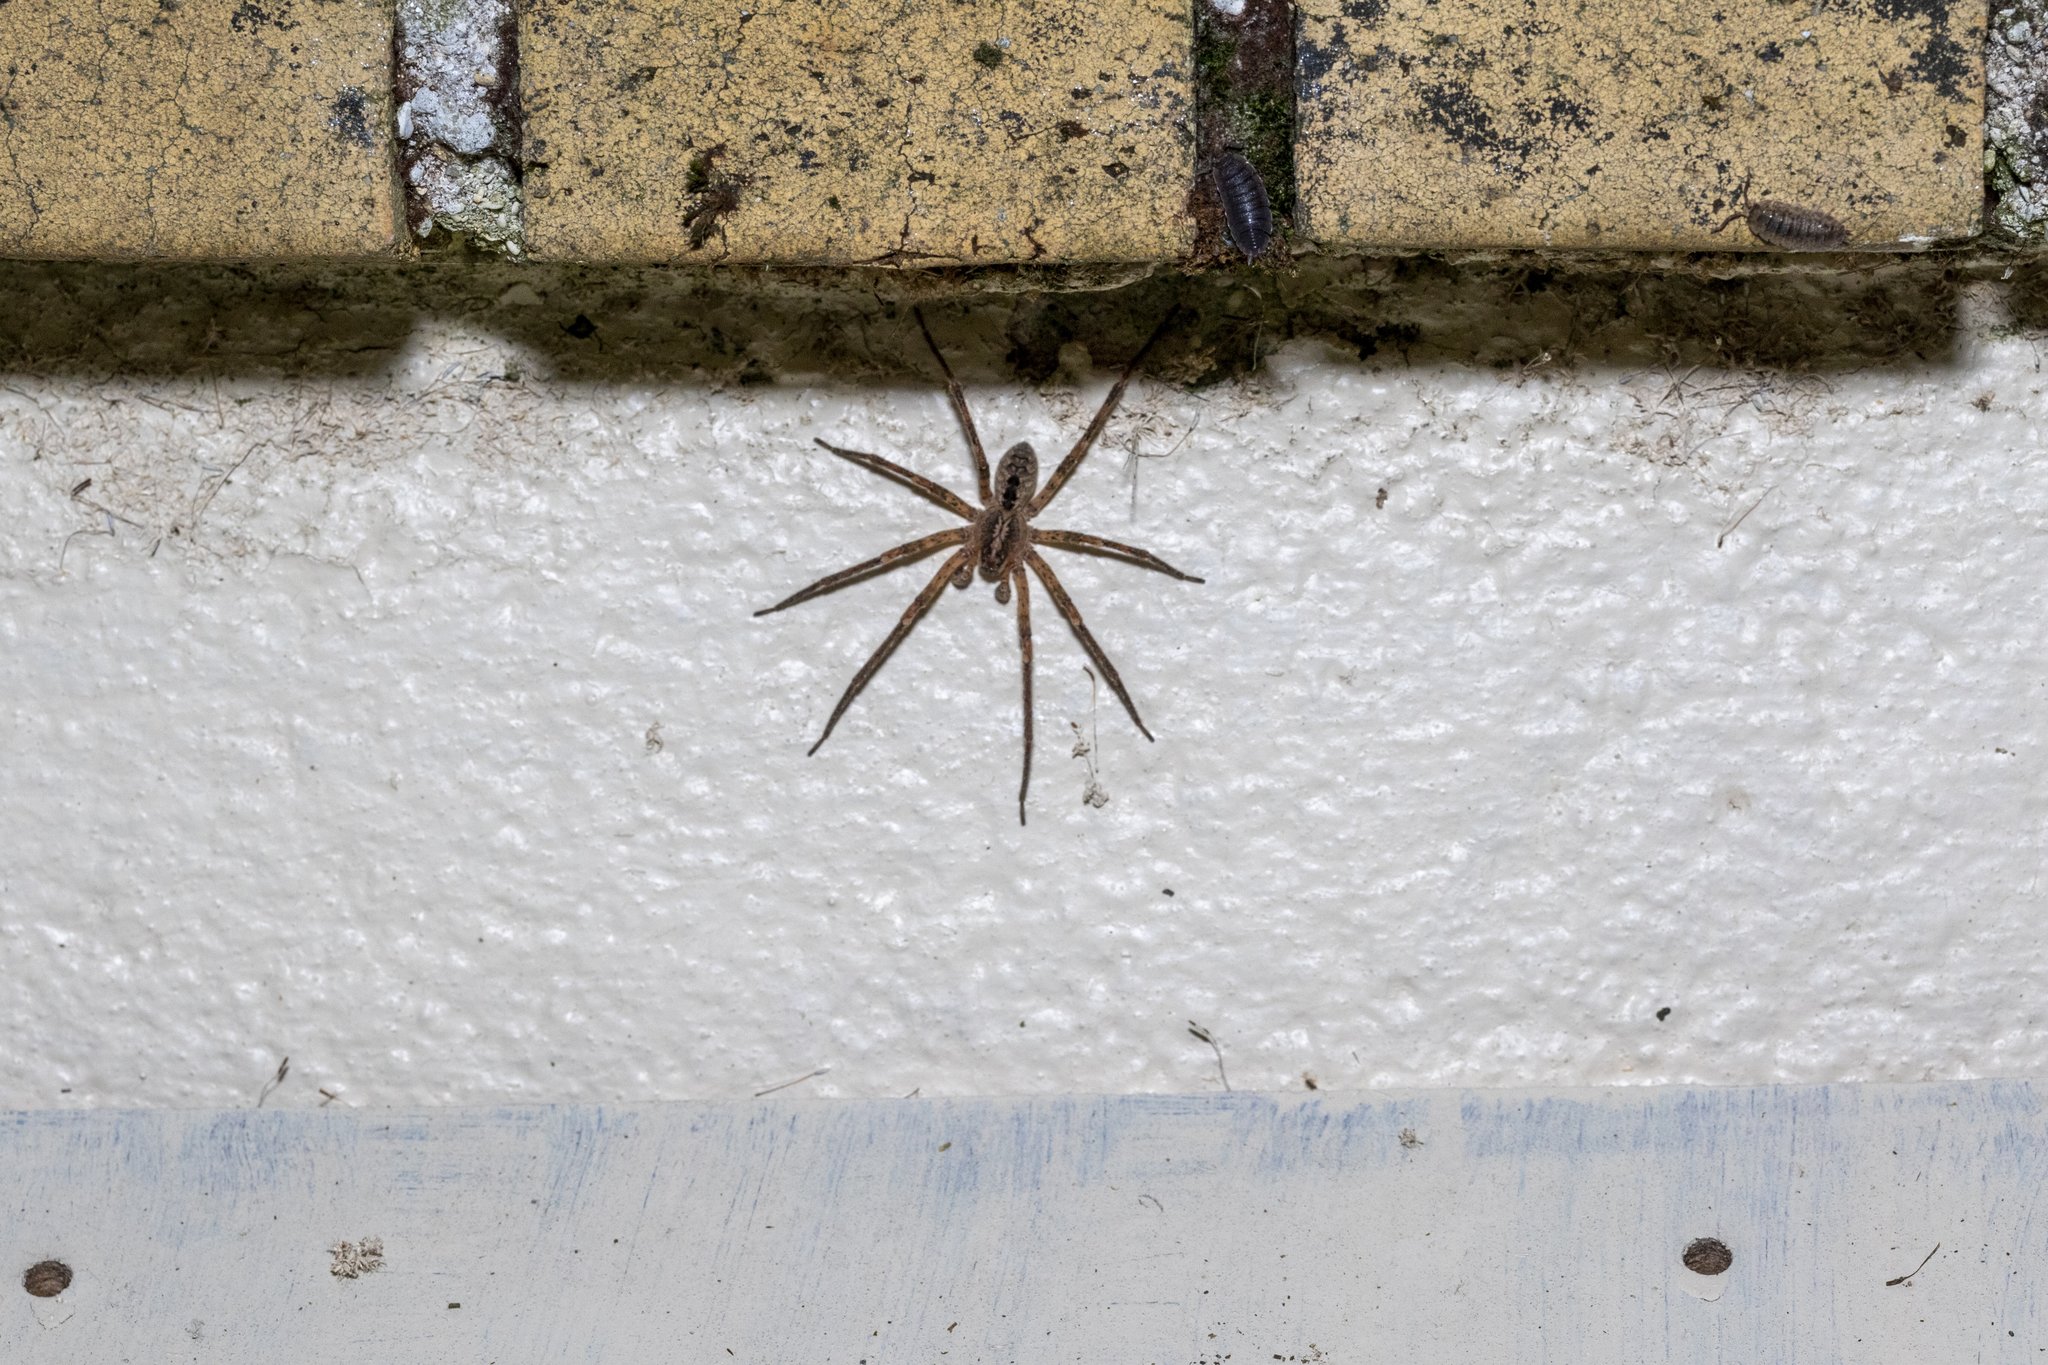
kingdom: Animalia
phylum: Arthropoda
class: Arachnida
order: Araneae
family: Zoropsidae
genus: Zoropsis
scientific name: Zoropsis spinimana
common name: Zoropsid spider
